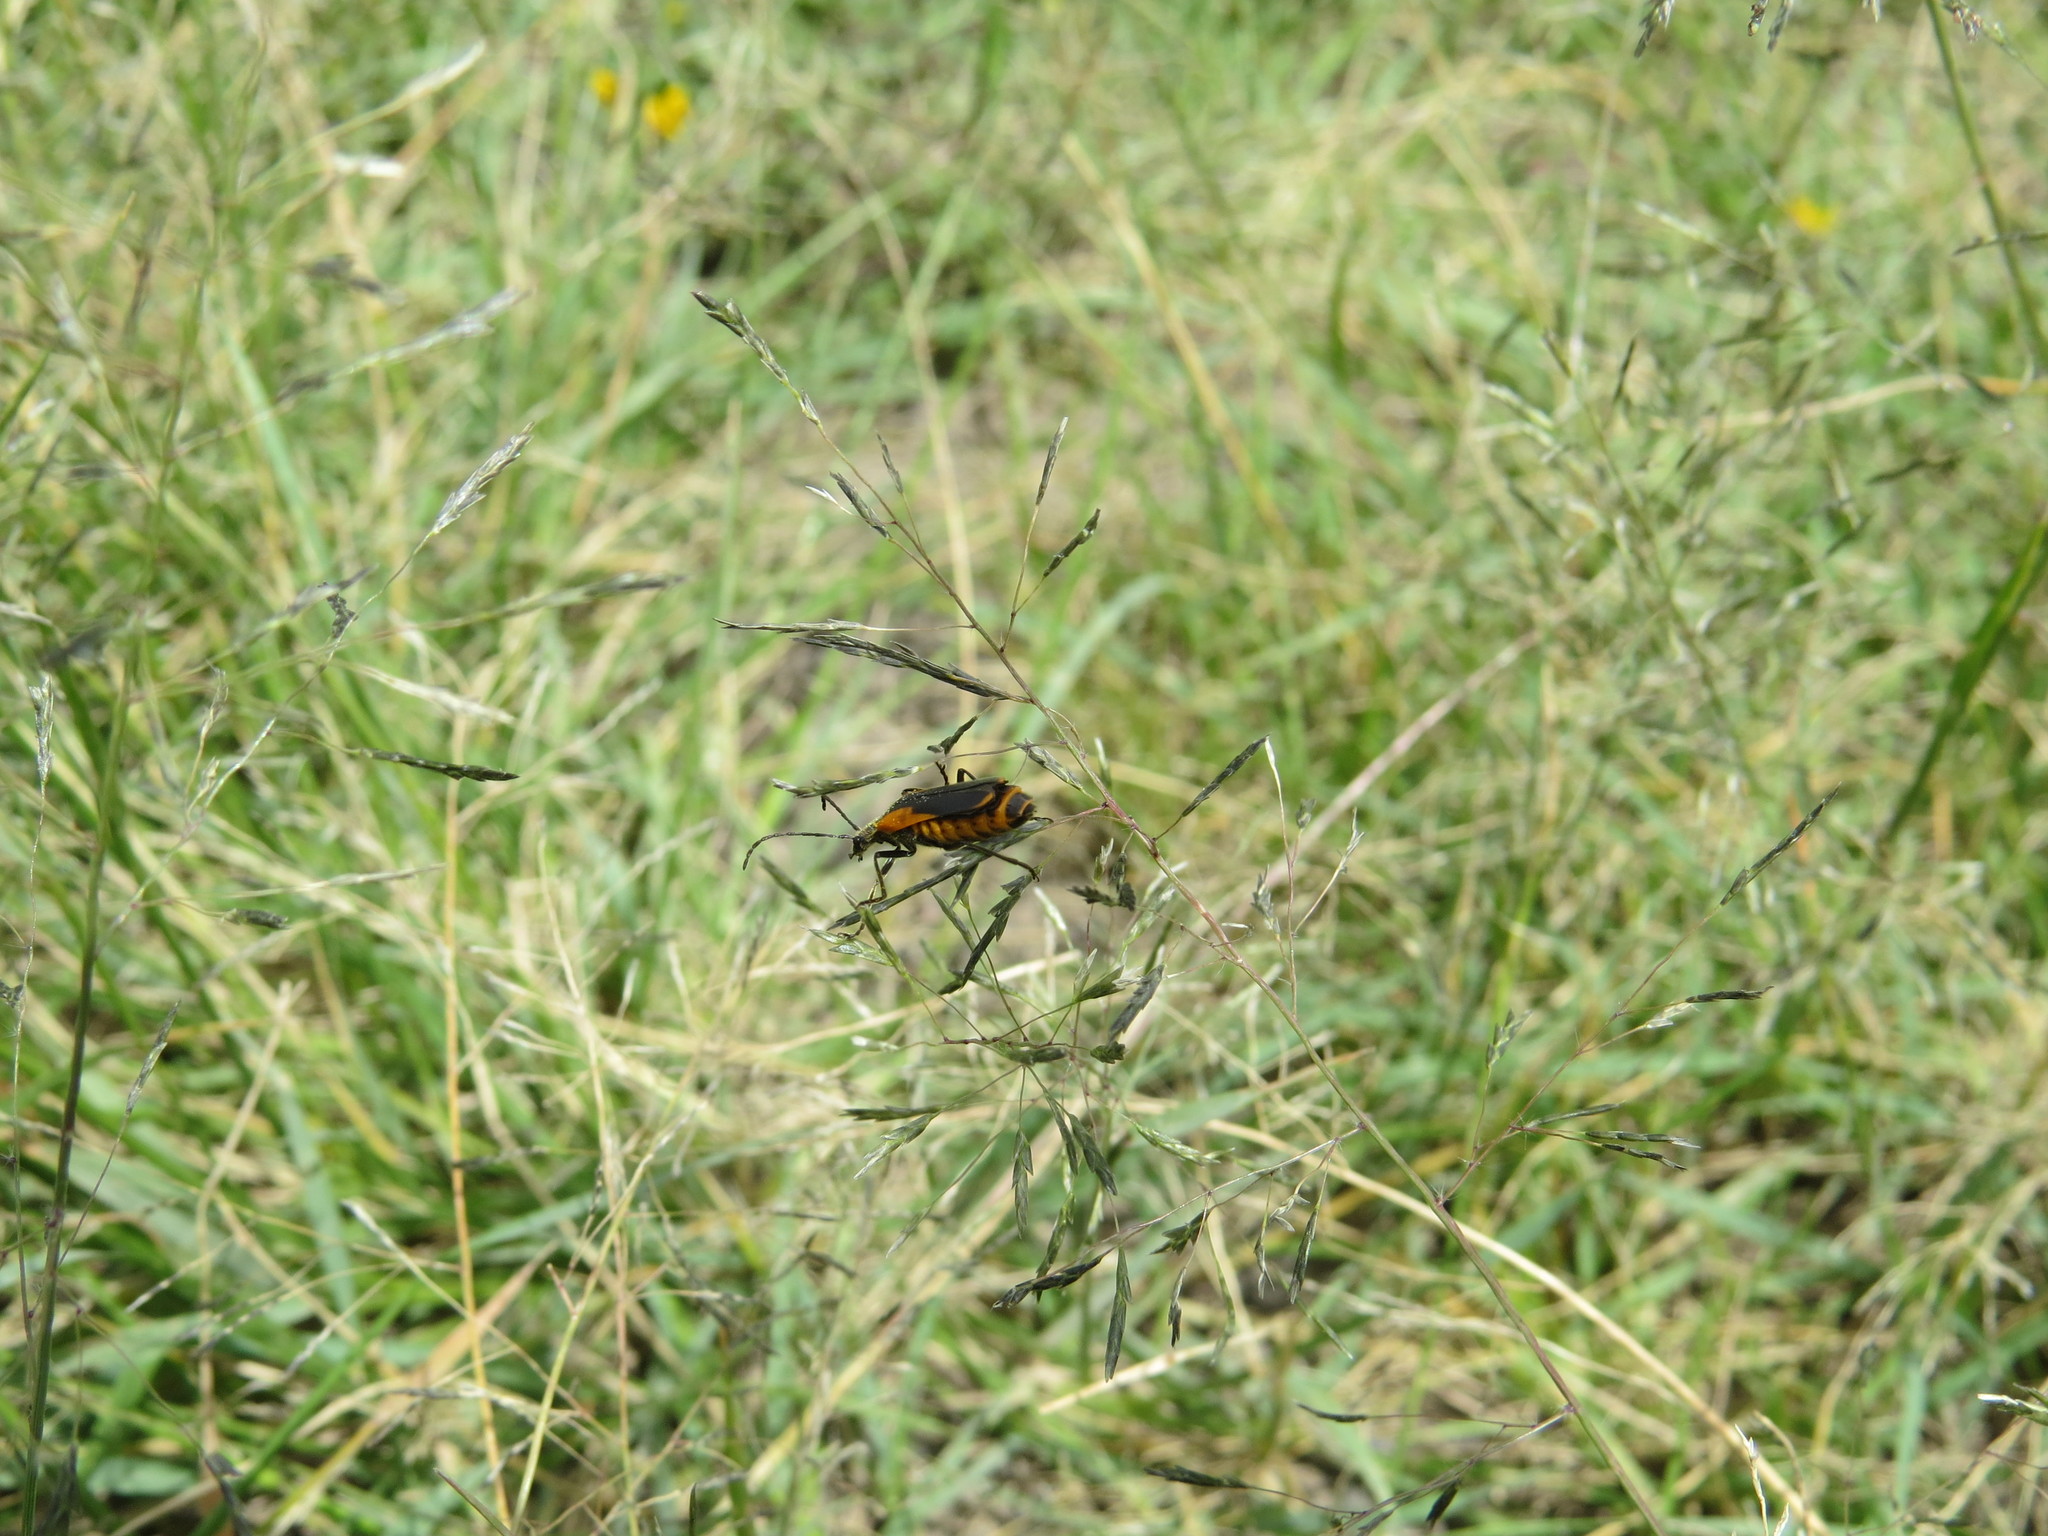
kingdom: Animalia
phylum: Arthropoda
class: Insecta
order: Coleoptera
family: Cantharidae
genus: Chauliognathus
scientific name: Chauliognathus limbicollis
